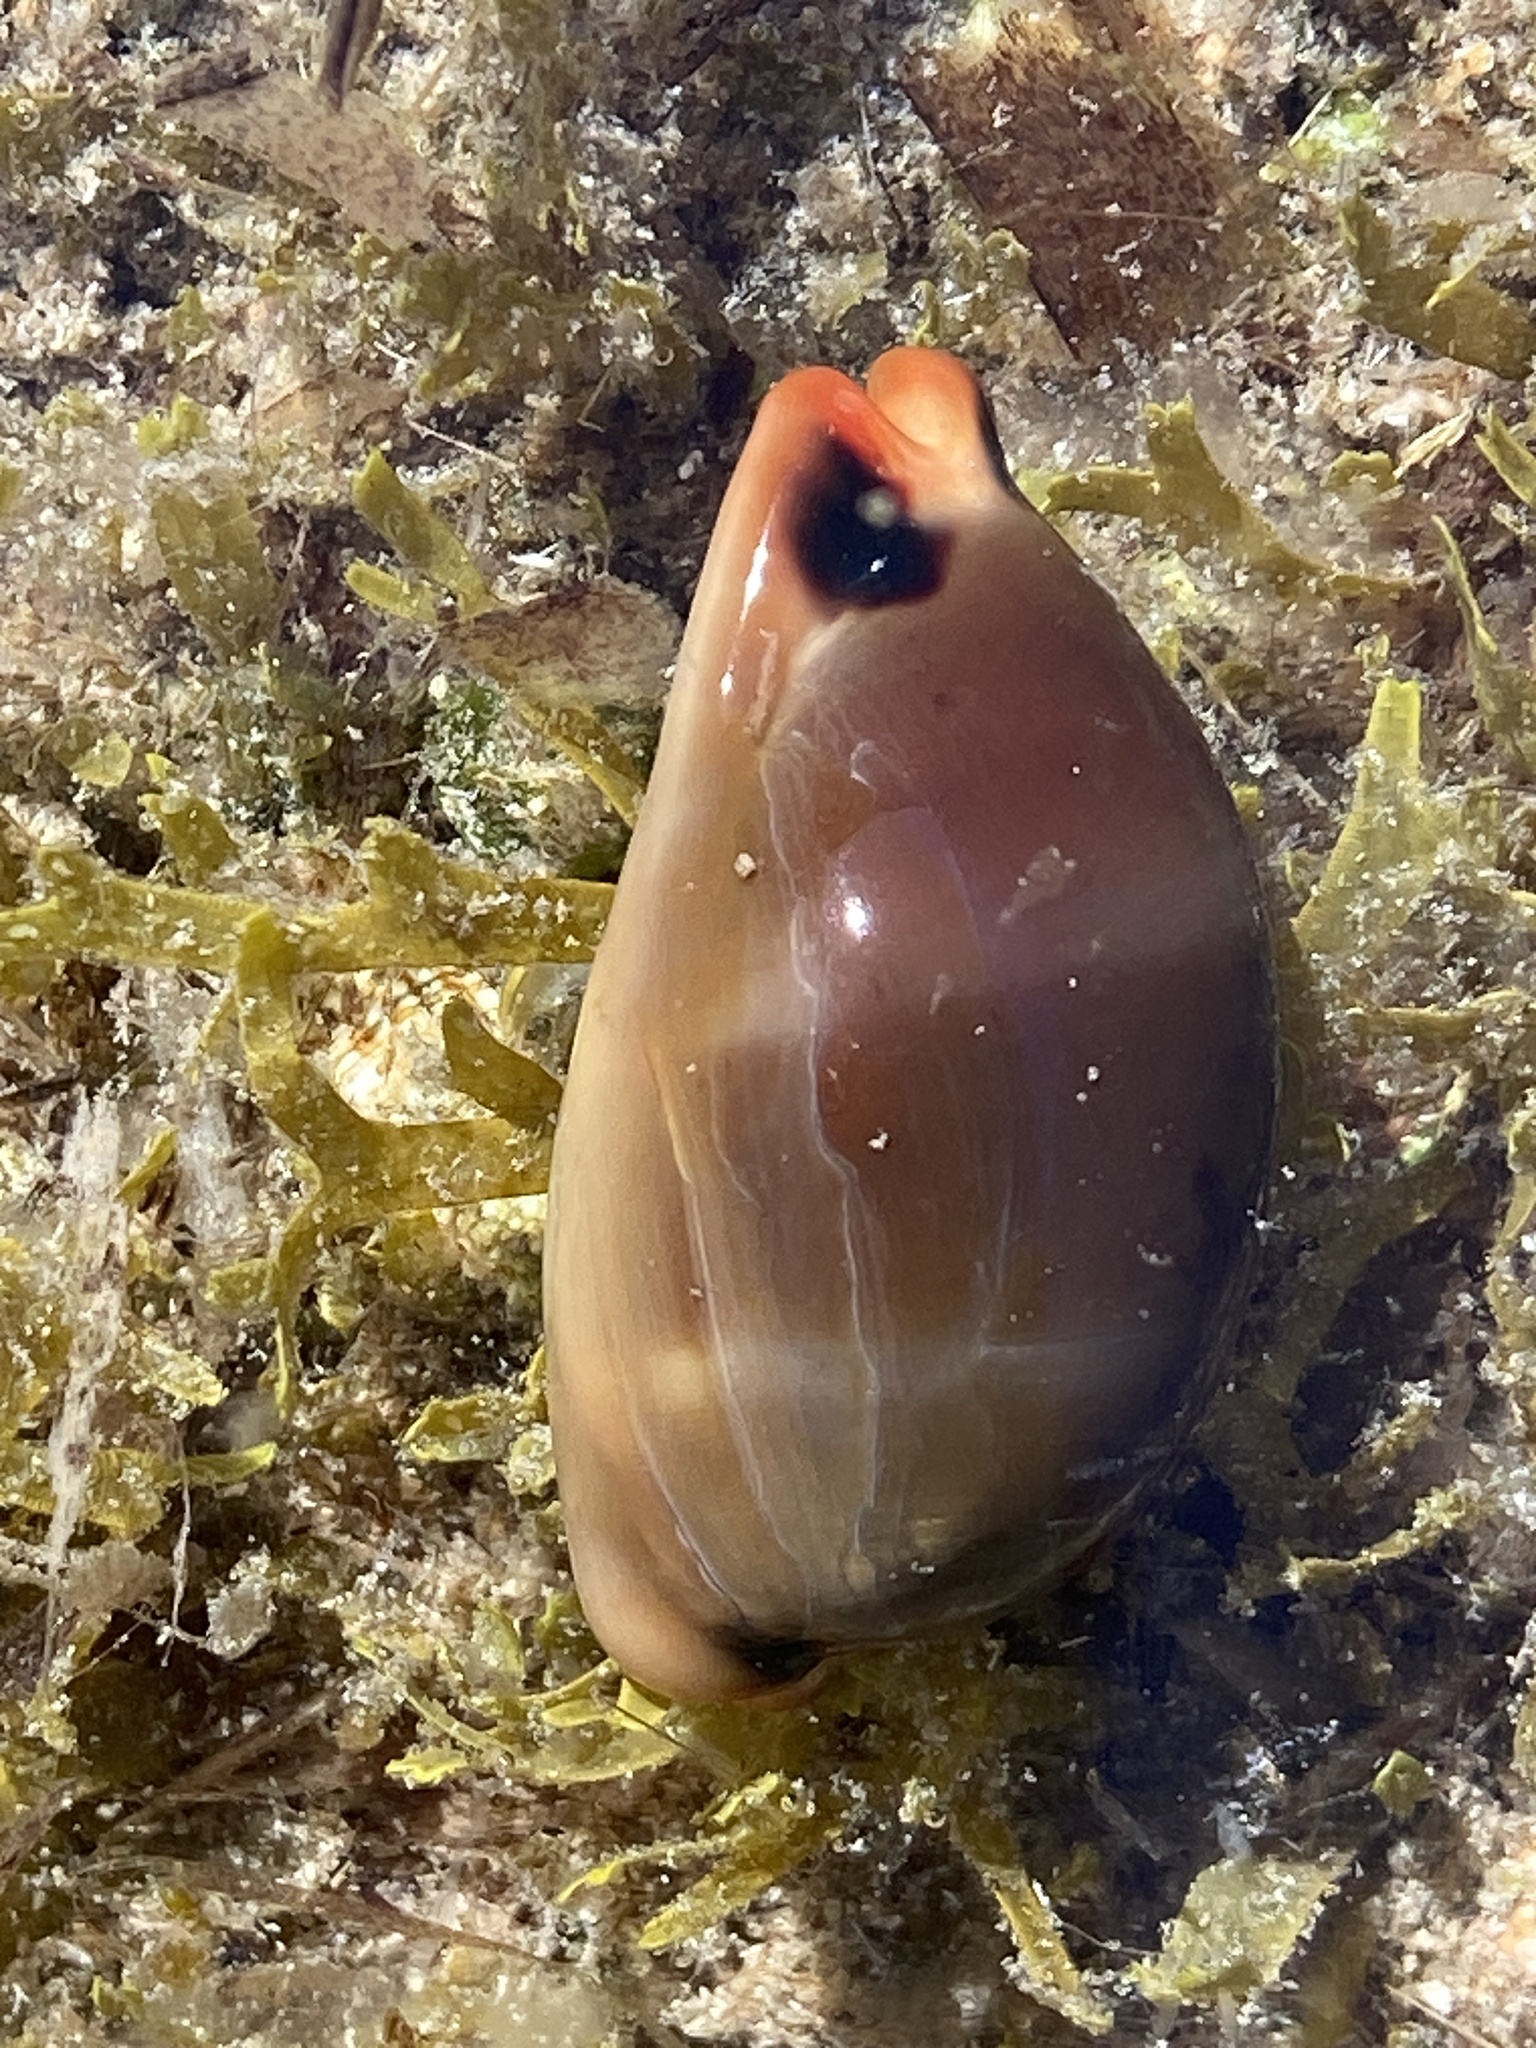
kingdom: Animalia
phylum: Mollusca
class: Gastropoda
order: Littorinimorpha
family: Cypraeidae
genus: Luria
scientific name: Luria lurida
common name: Brown cowry
